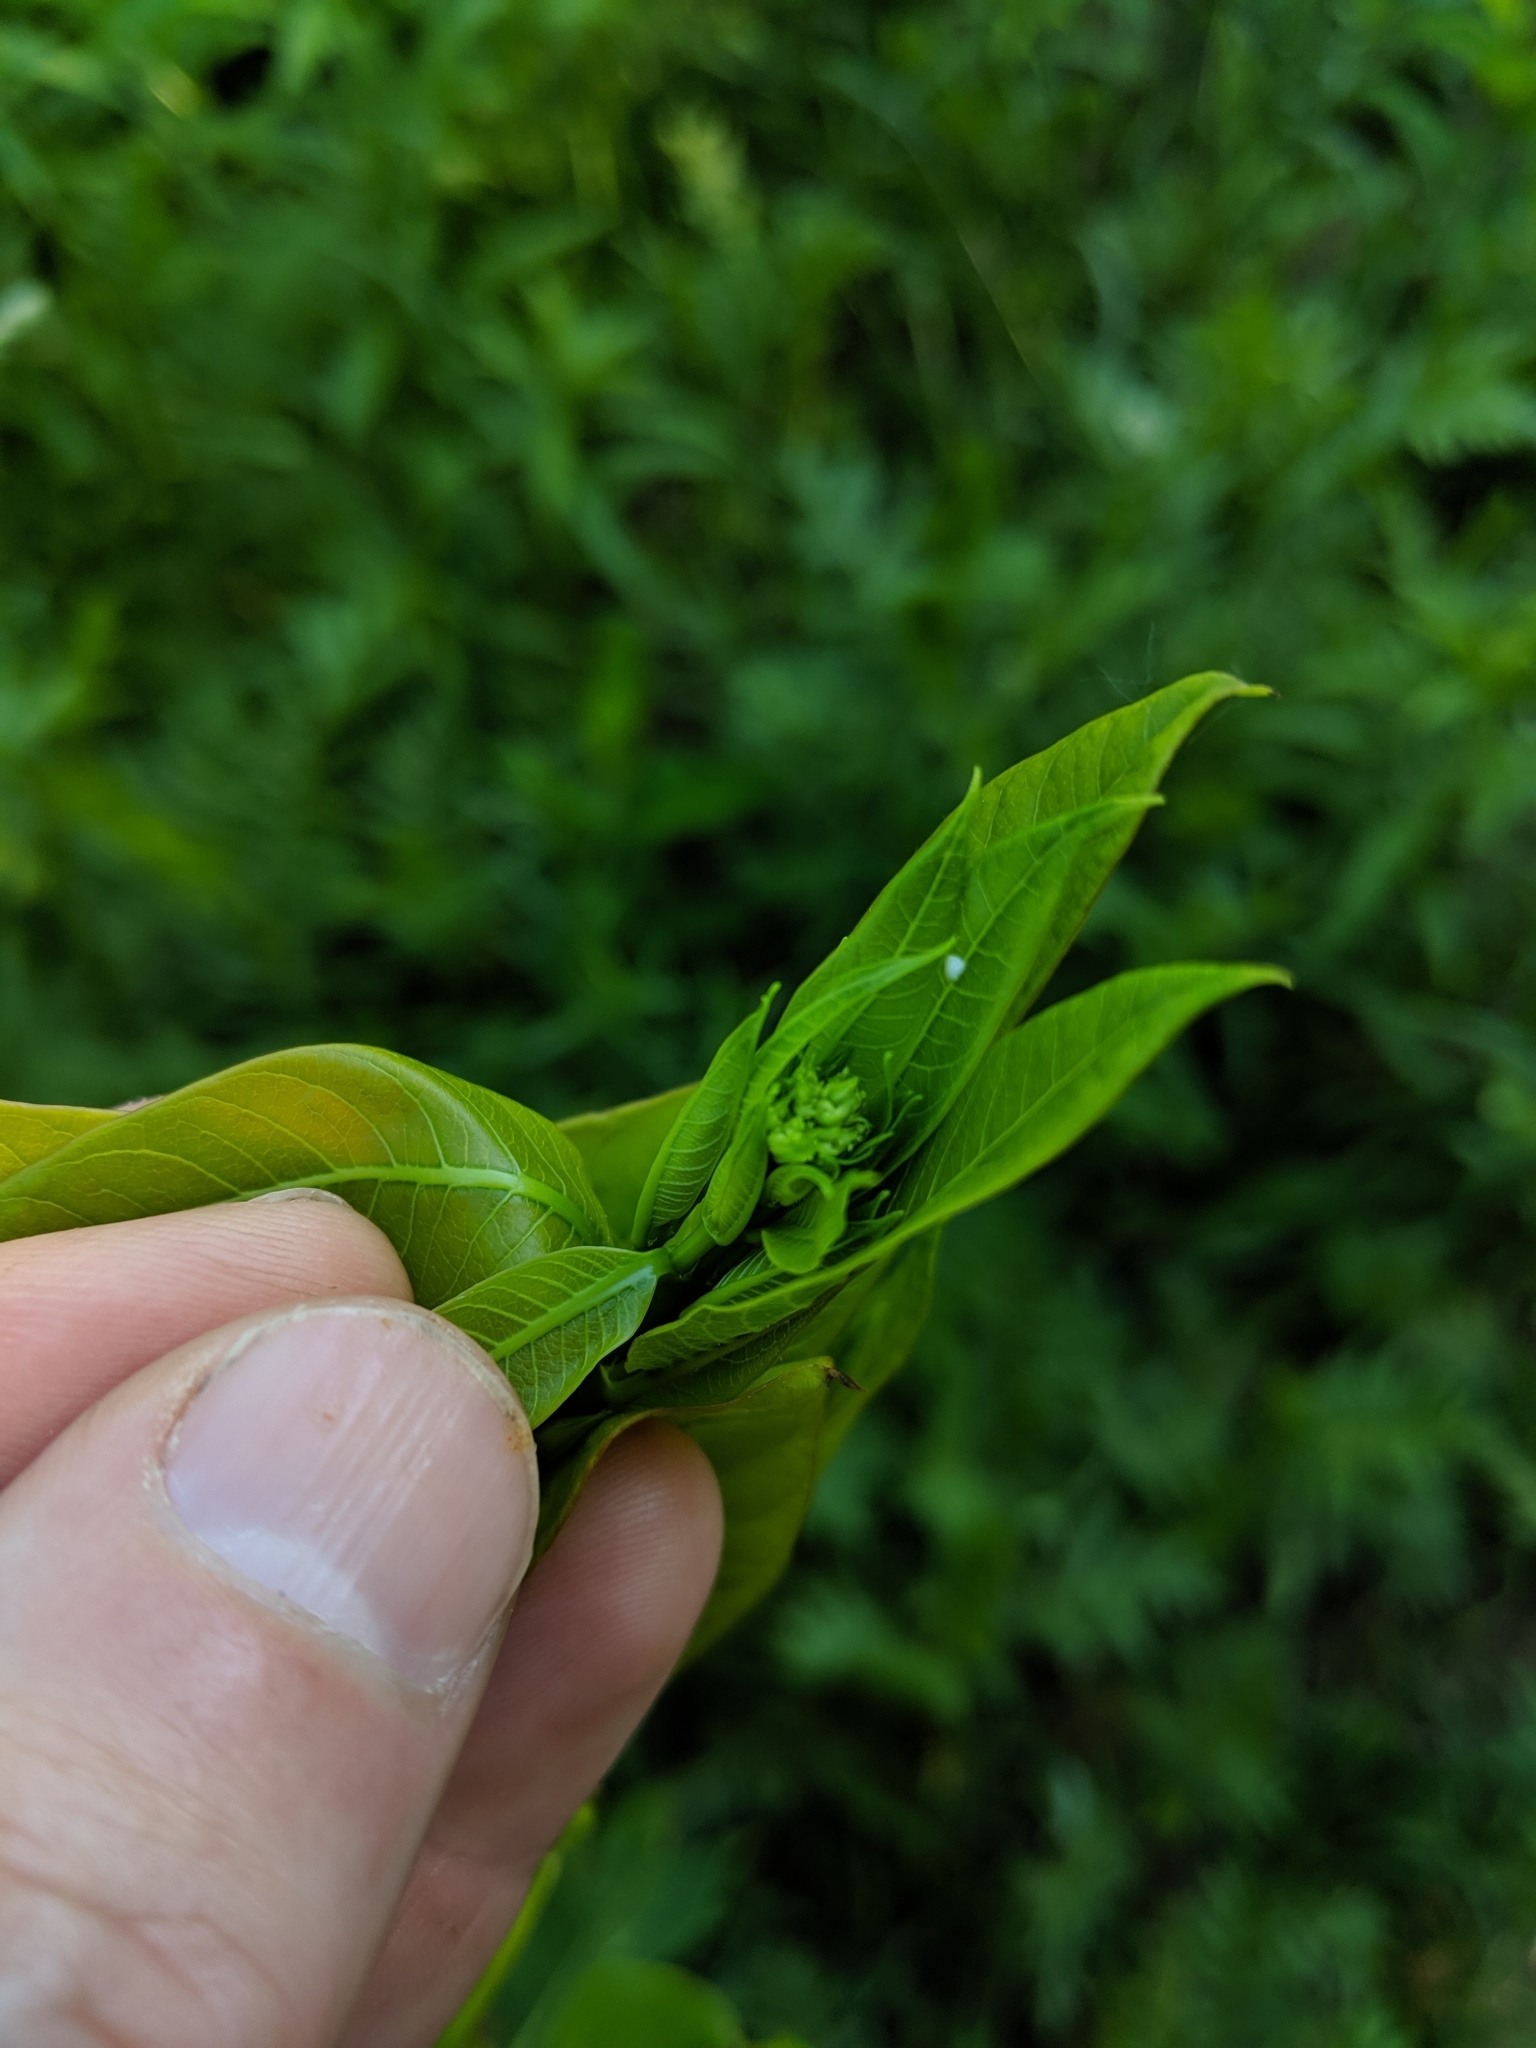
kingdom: Plantae
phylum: Tracheophyta
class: Magnoliopsida
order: Gentianales
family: Apocynaceae
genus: Apocynum
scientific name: Apocynum cannabinum
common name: Hemp dogbane
